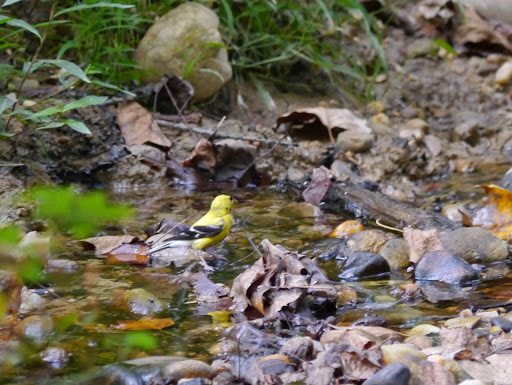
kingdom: Animalia
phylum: Chordata
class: Aves
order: Passeriformes
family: Fringillidae
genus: Spinus
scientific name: Spinus tristis
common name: American goldfinch
